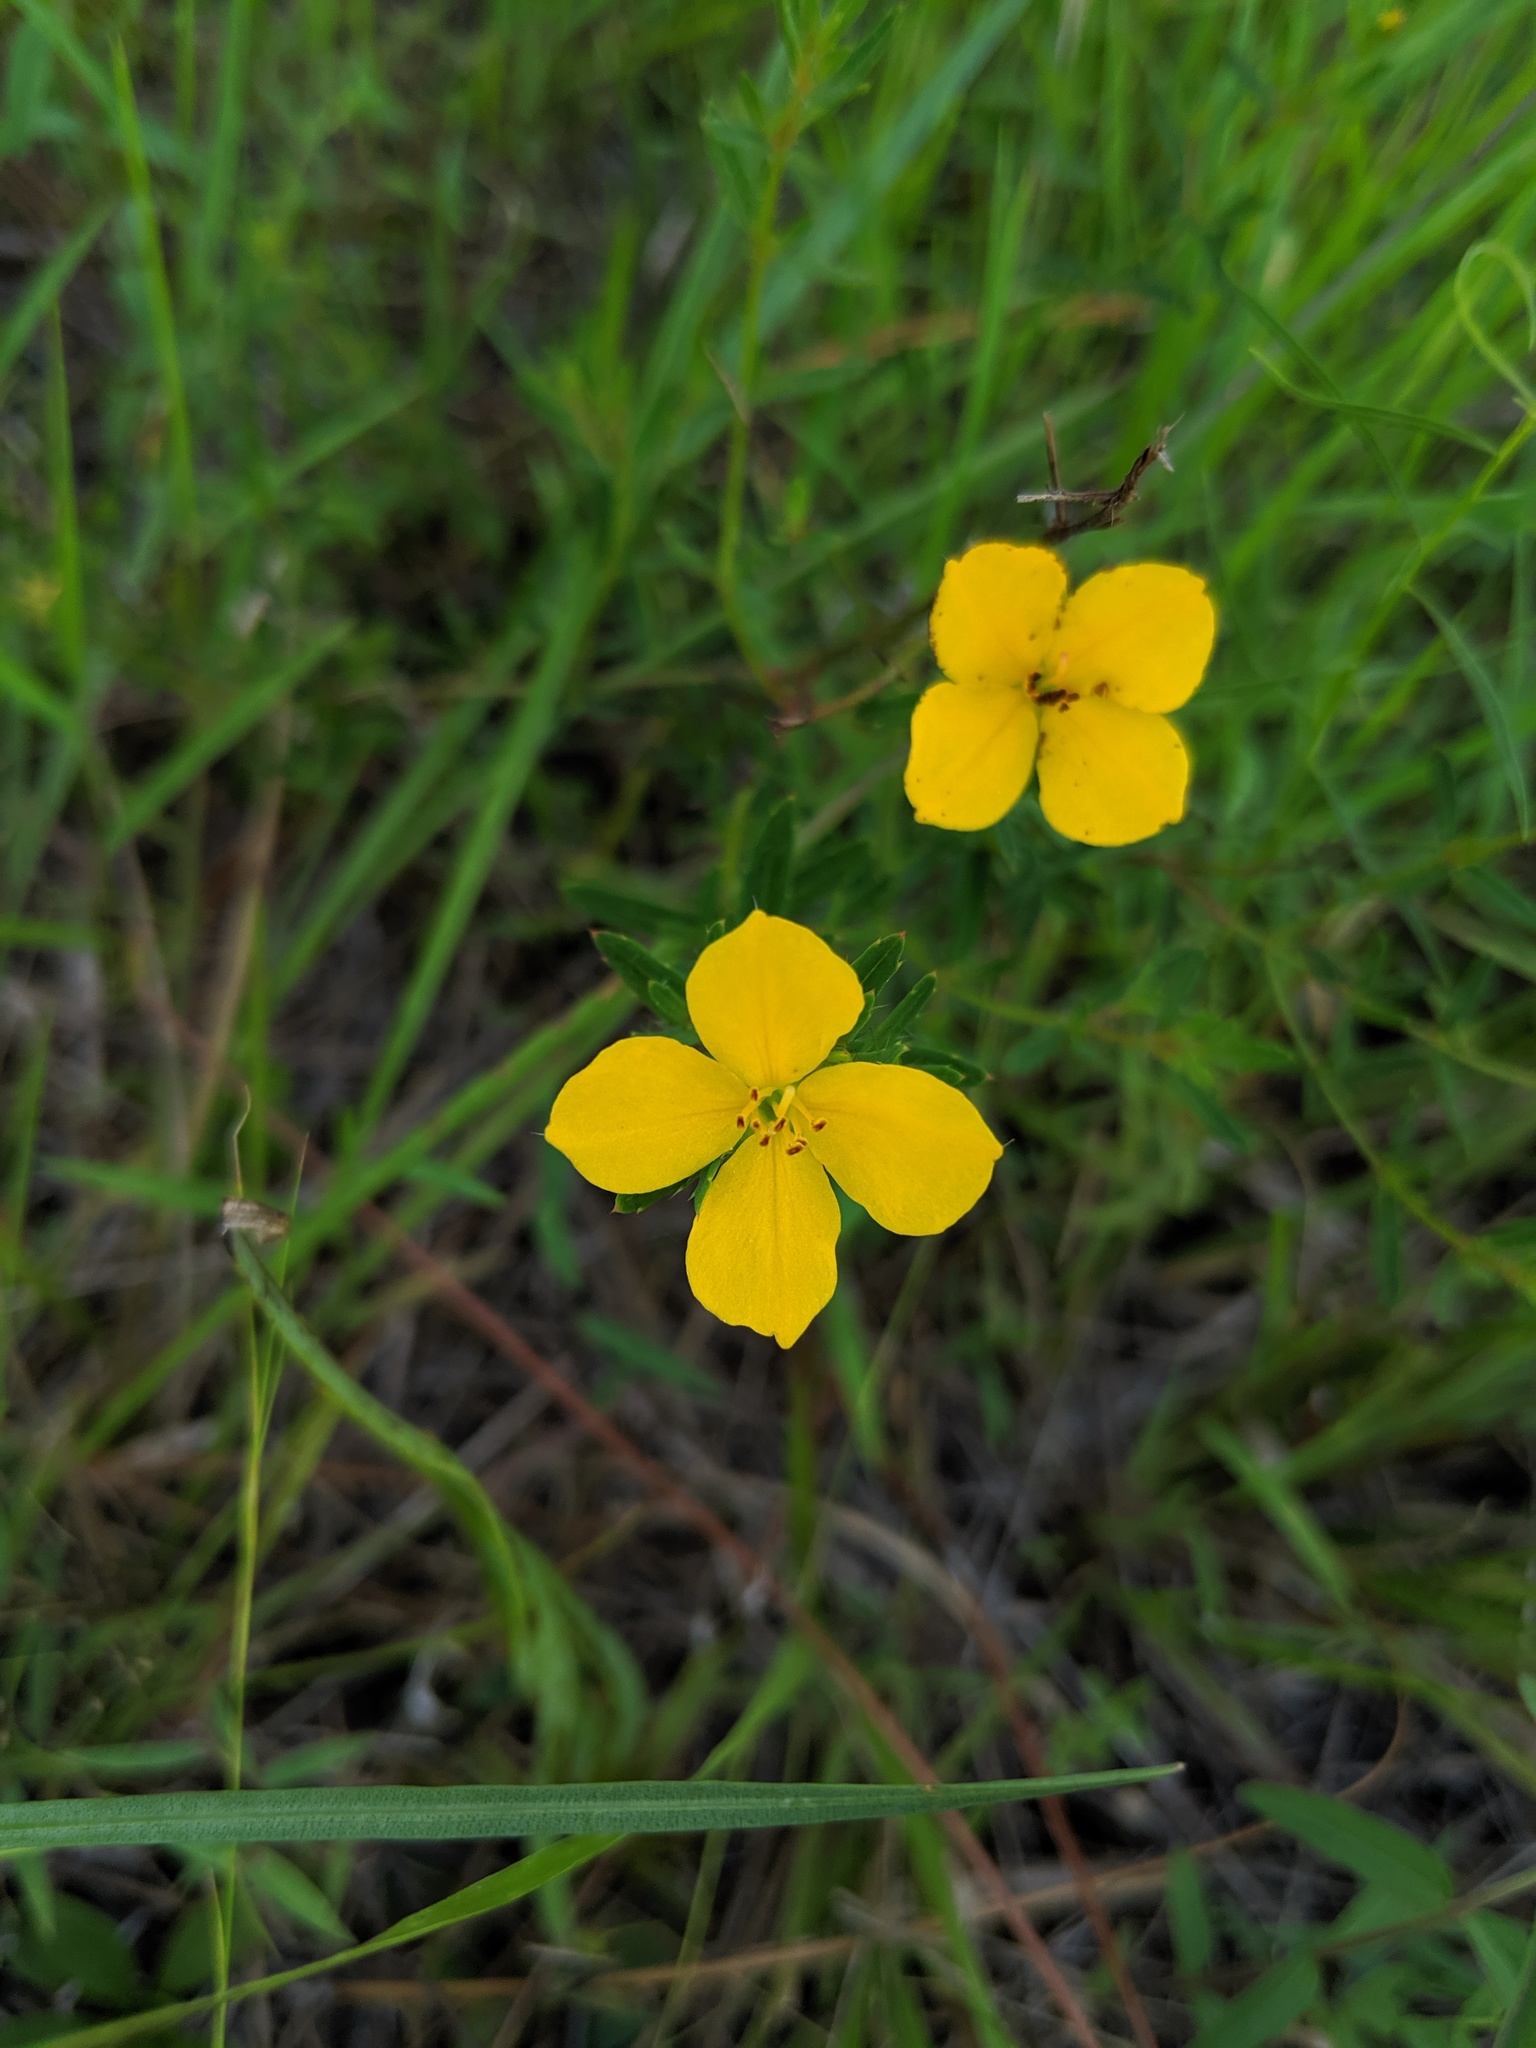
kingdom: Plantae
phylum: Tracheophyta
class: Magnoliopsida
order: Myrtales
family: Melastomataceae
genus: Rhexia
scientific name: Rhexia lutea
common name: Golden meadow-beauty
